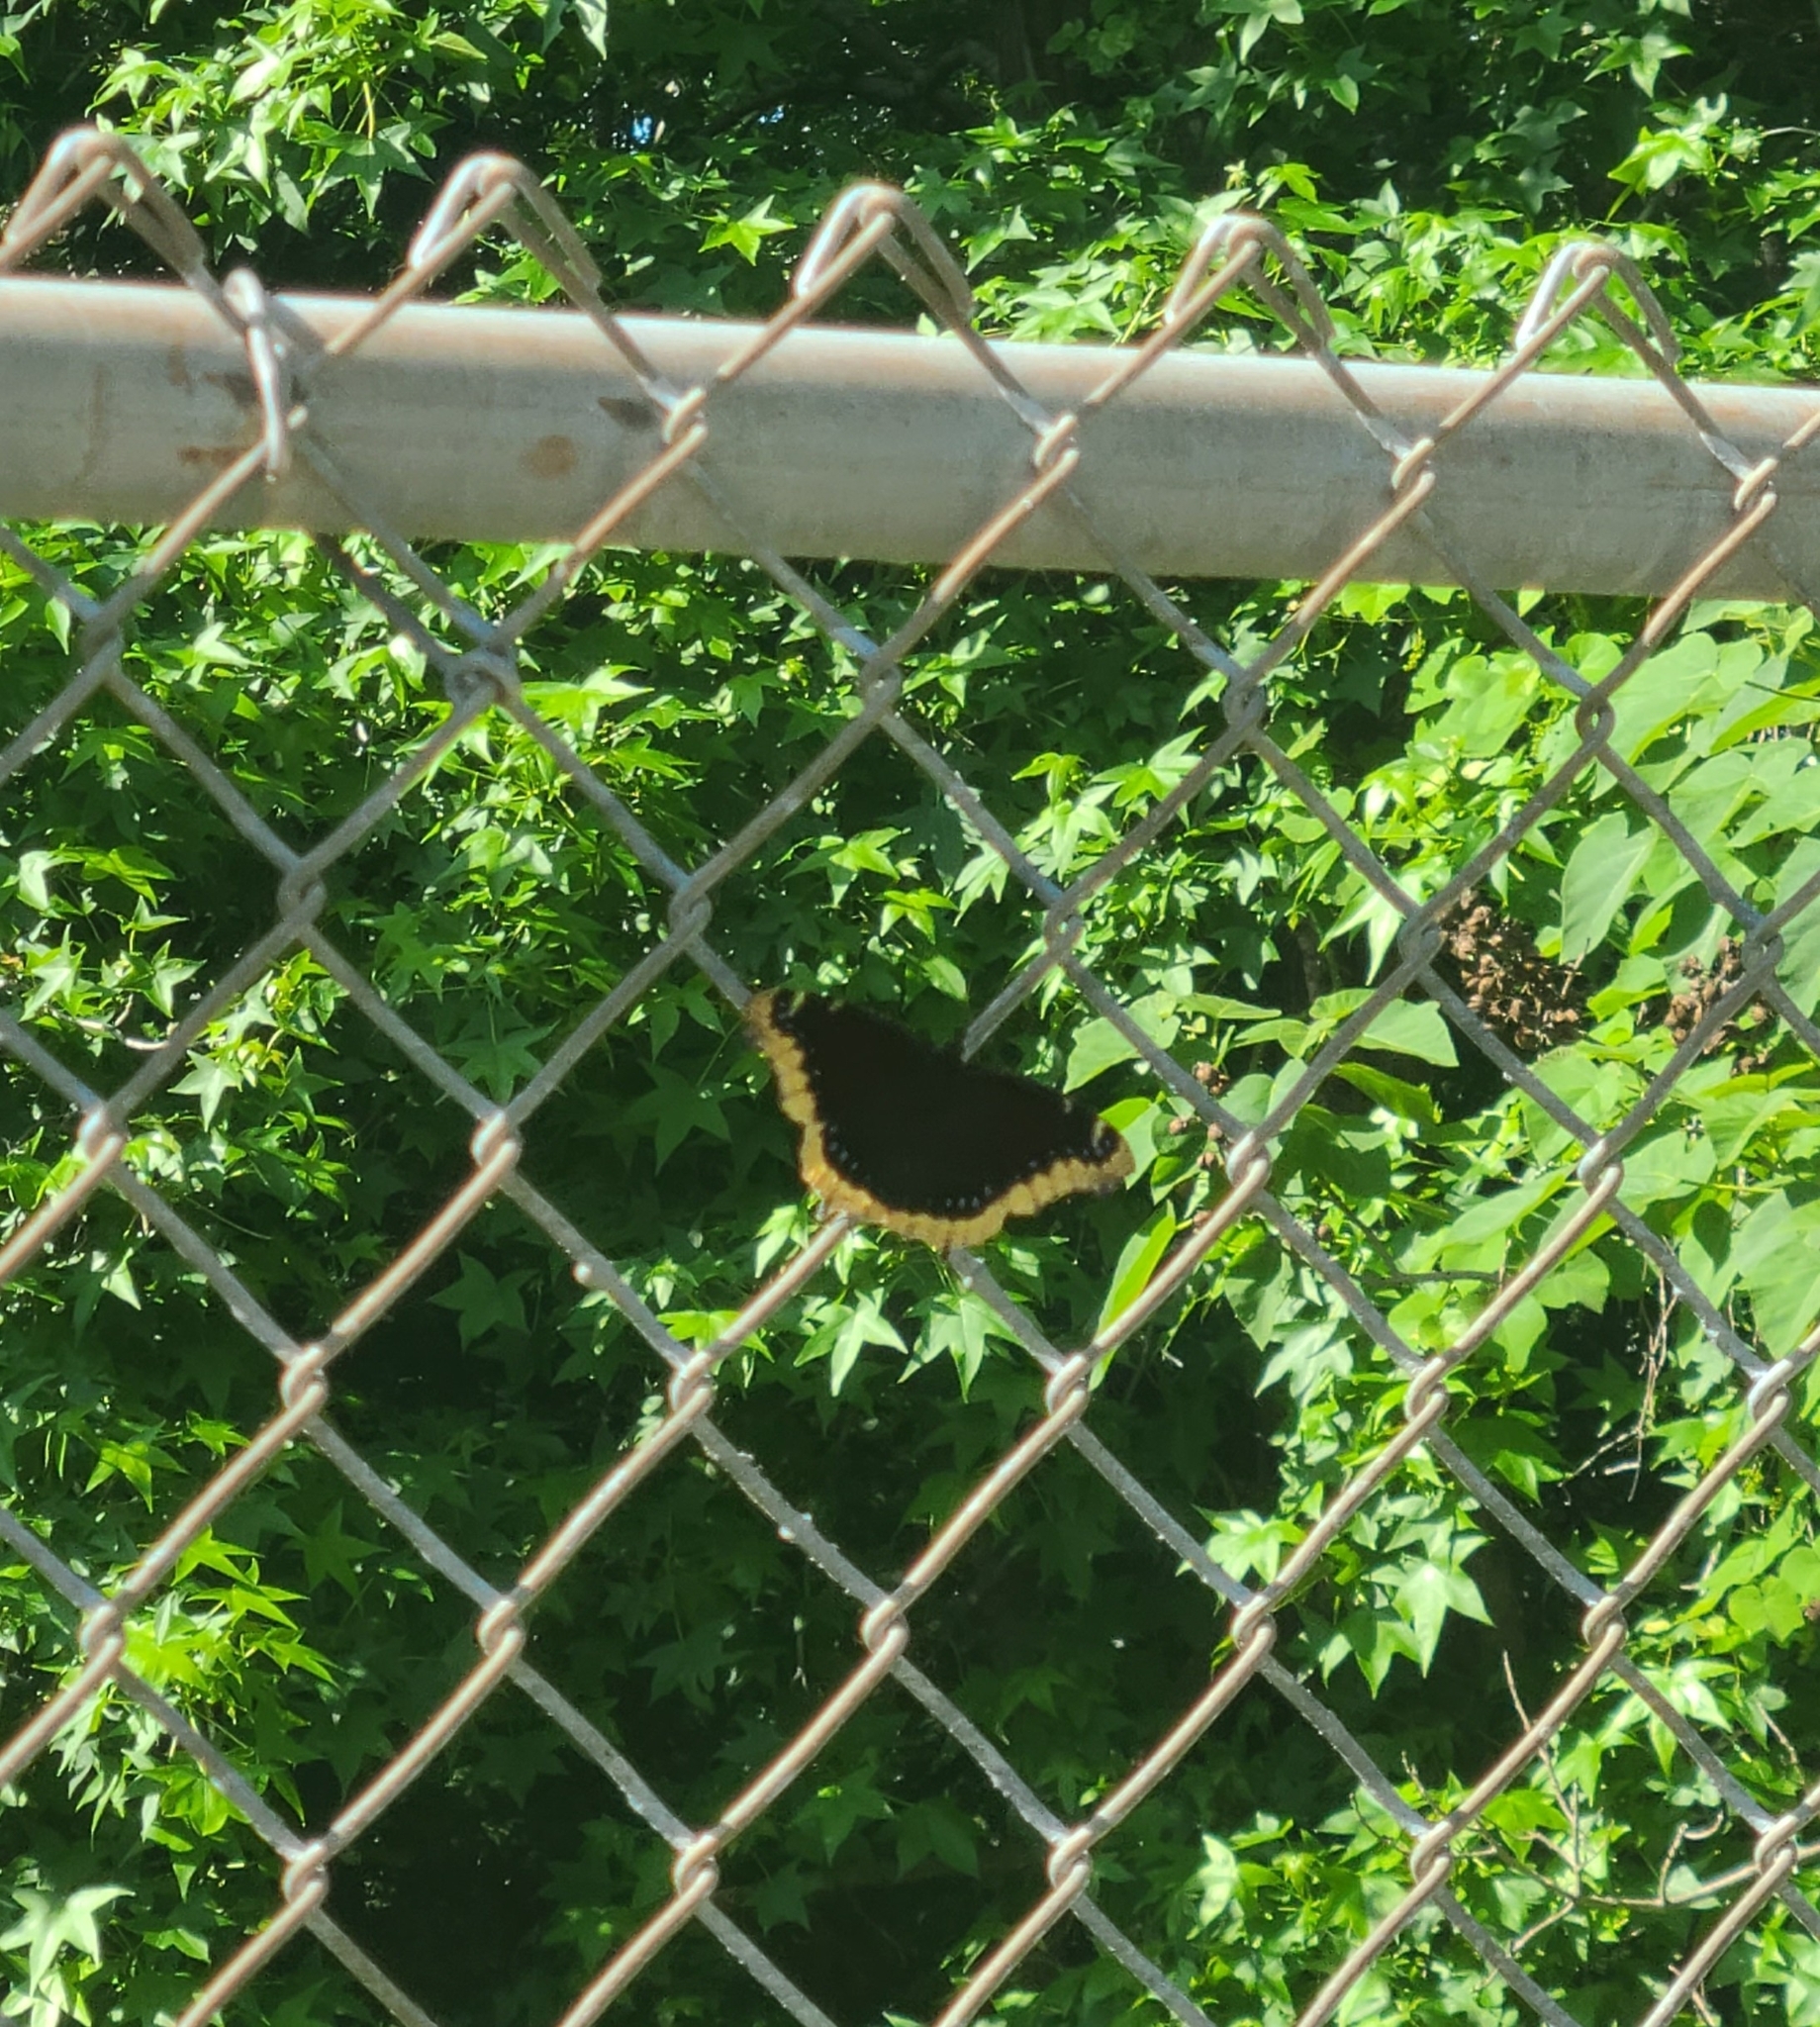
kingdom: Animalia
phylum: Arthropoda
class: Insecta
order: Lepidoptera
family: Nymphalidae
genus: Nymphalis
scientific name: Nymphalis antiopa
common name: Camberwell beauty
